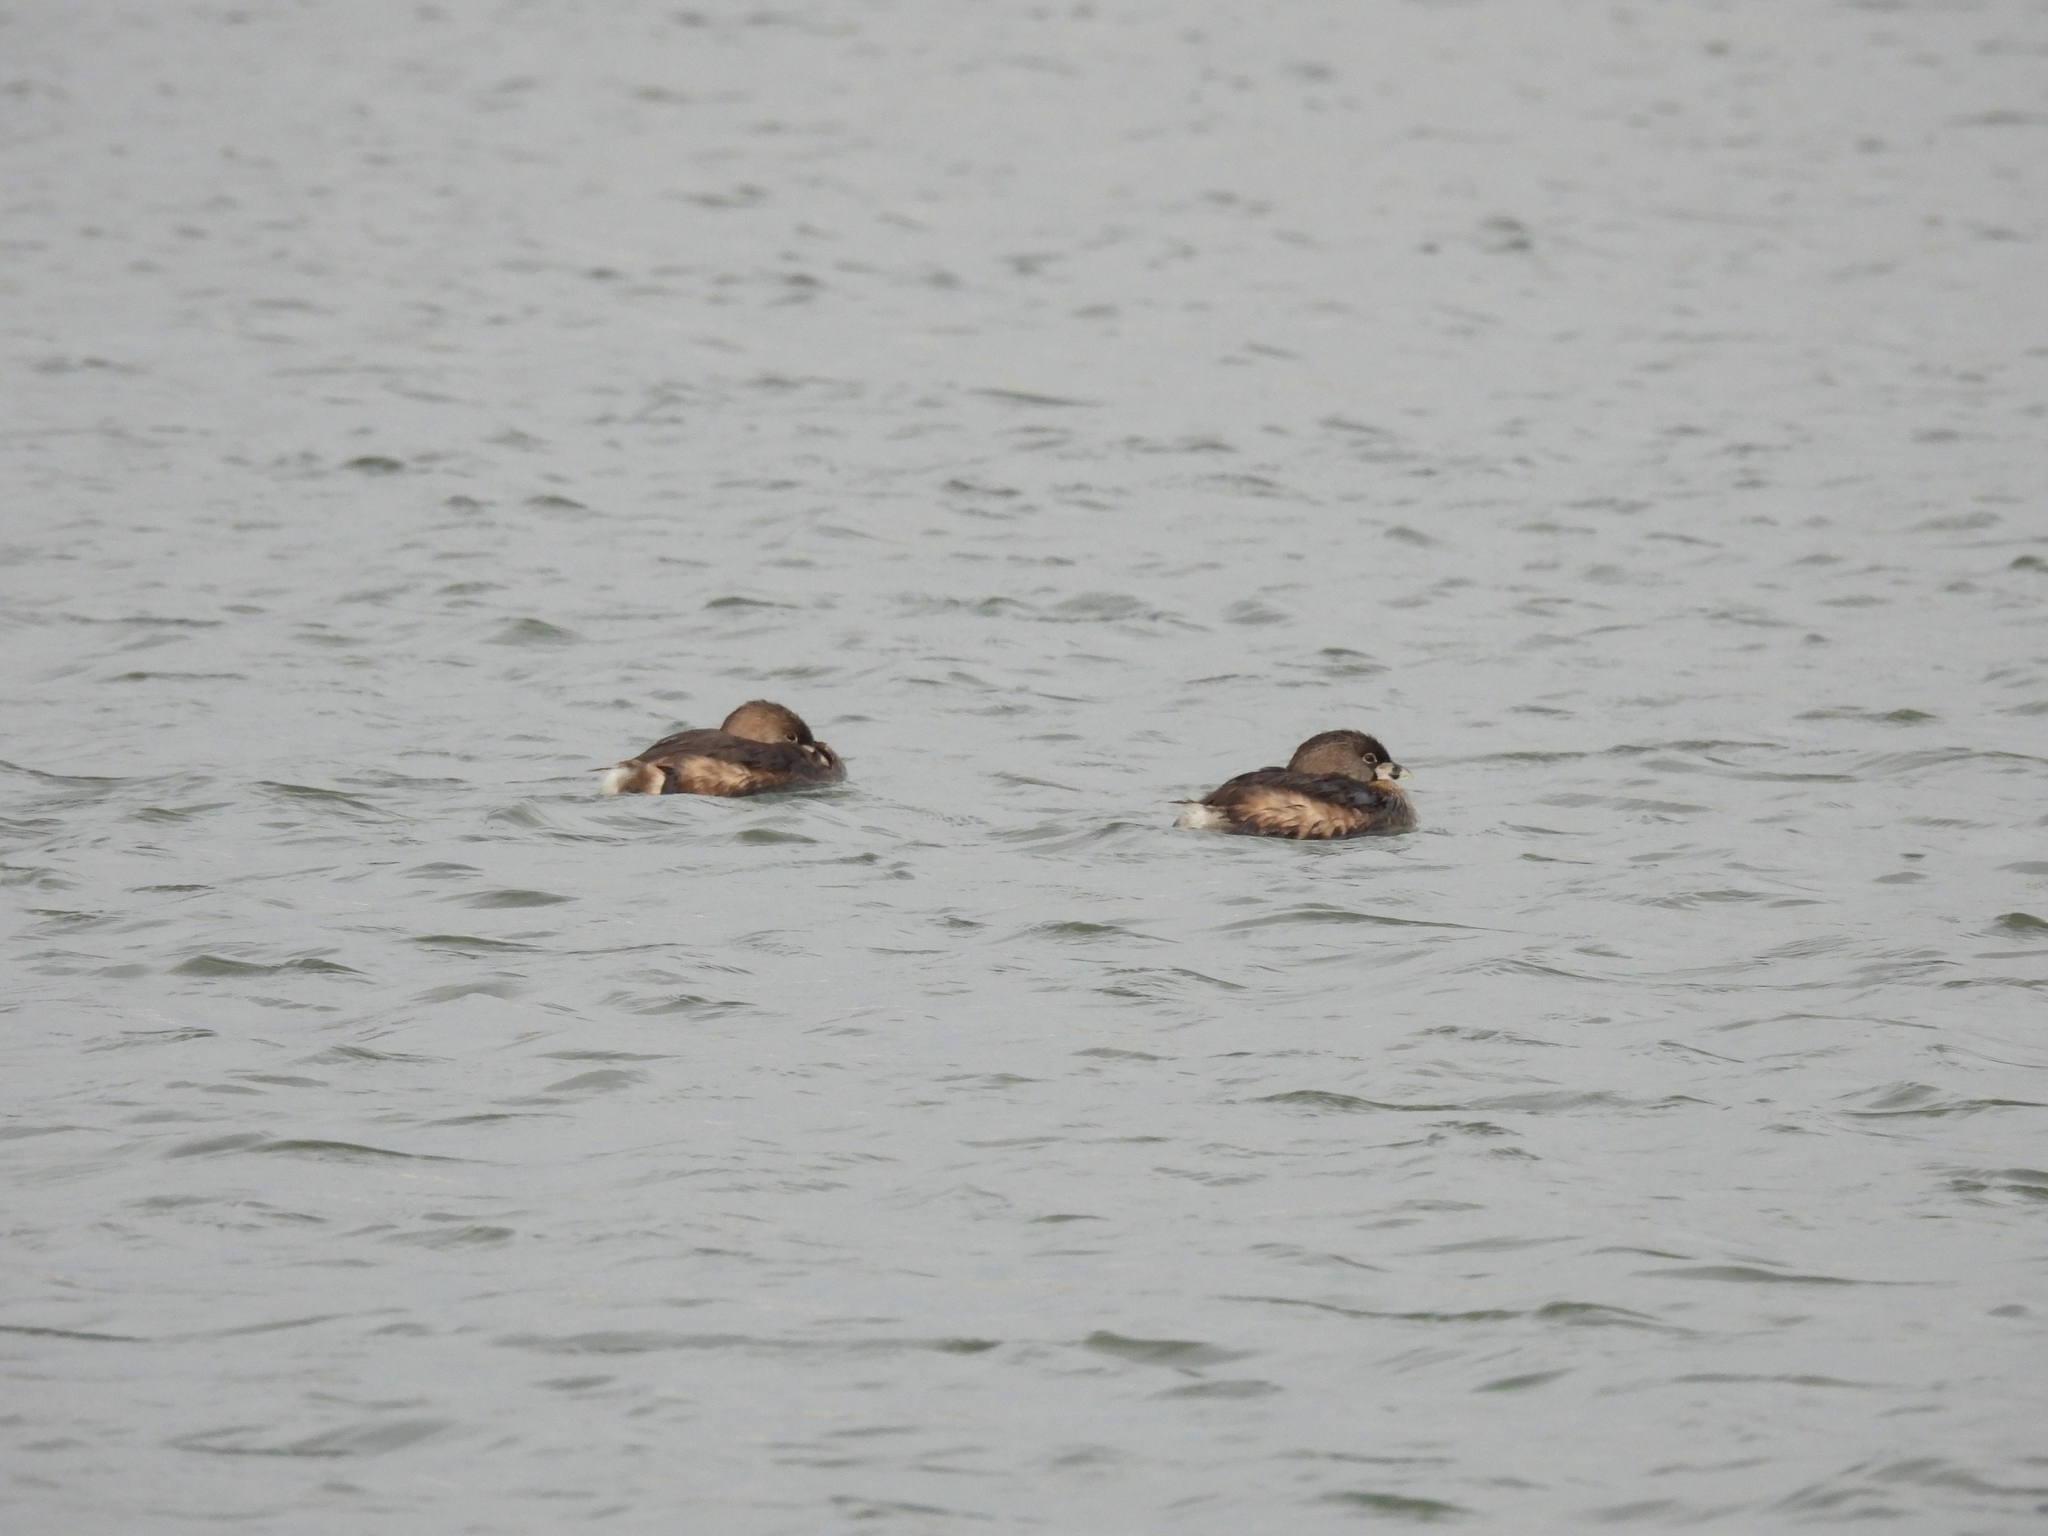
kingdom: Animalia
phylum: Chordata
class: Aves
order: Podicipediformes
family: Podicipedidae
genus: Podilymbus
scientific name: Podilymbus podiceps
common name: Pied-billed grebe
